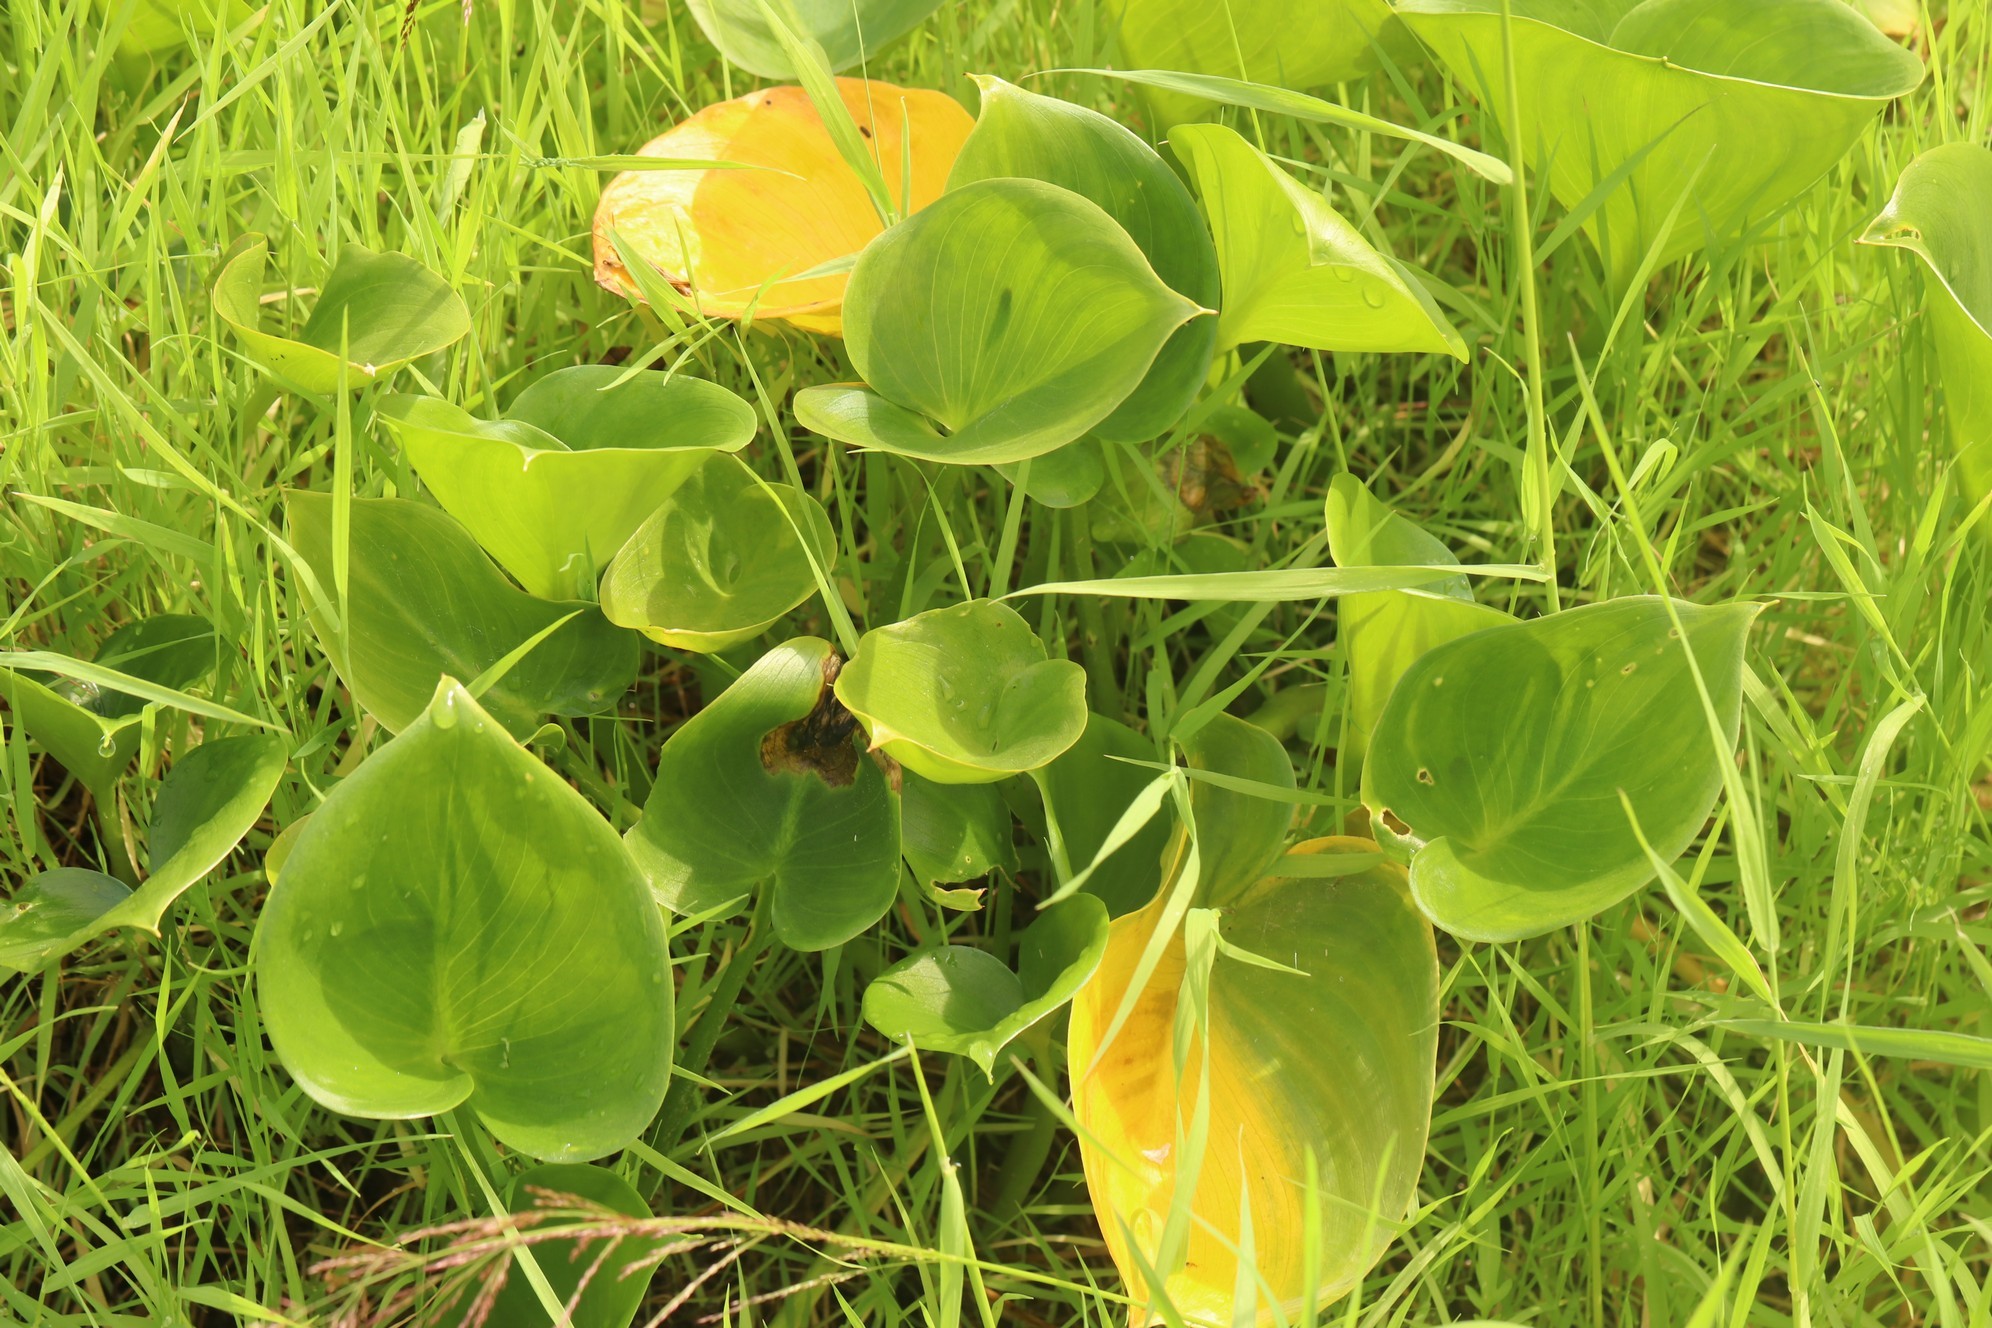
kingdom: Plantae
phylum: Tracheophyta
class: Liliopsida
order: Alismatales
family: Araceae
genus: Calla
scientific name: Calla palustris
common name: Bog arum
